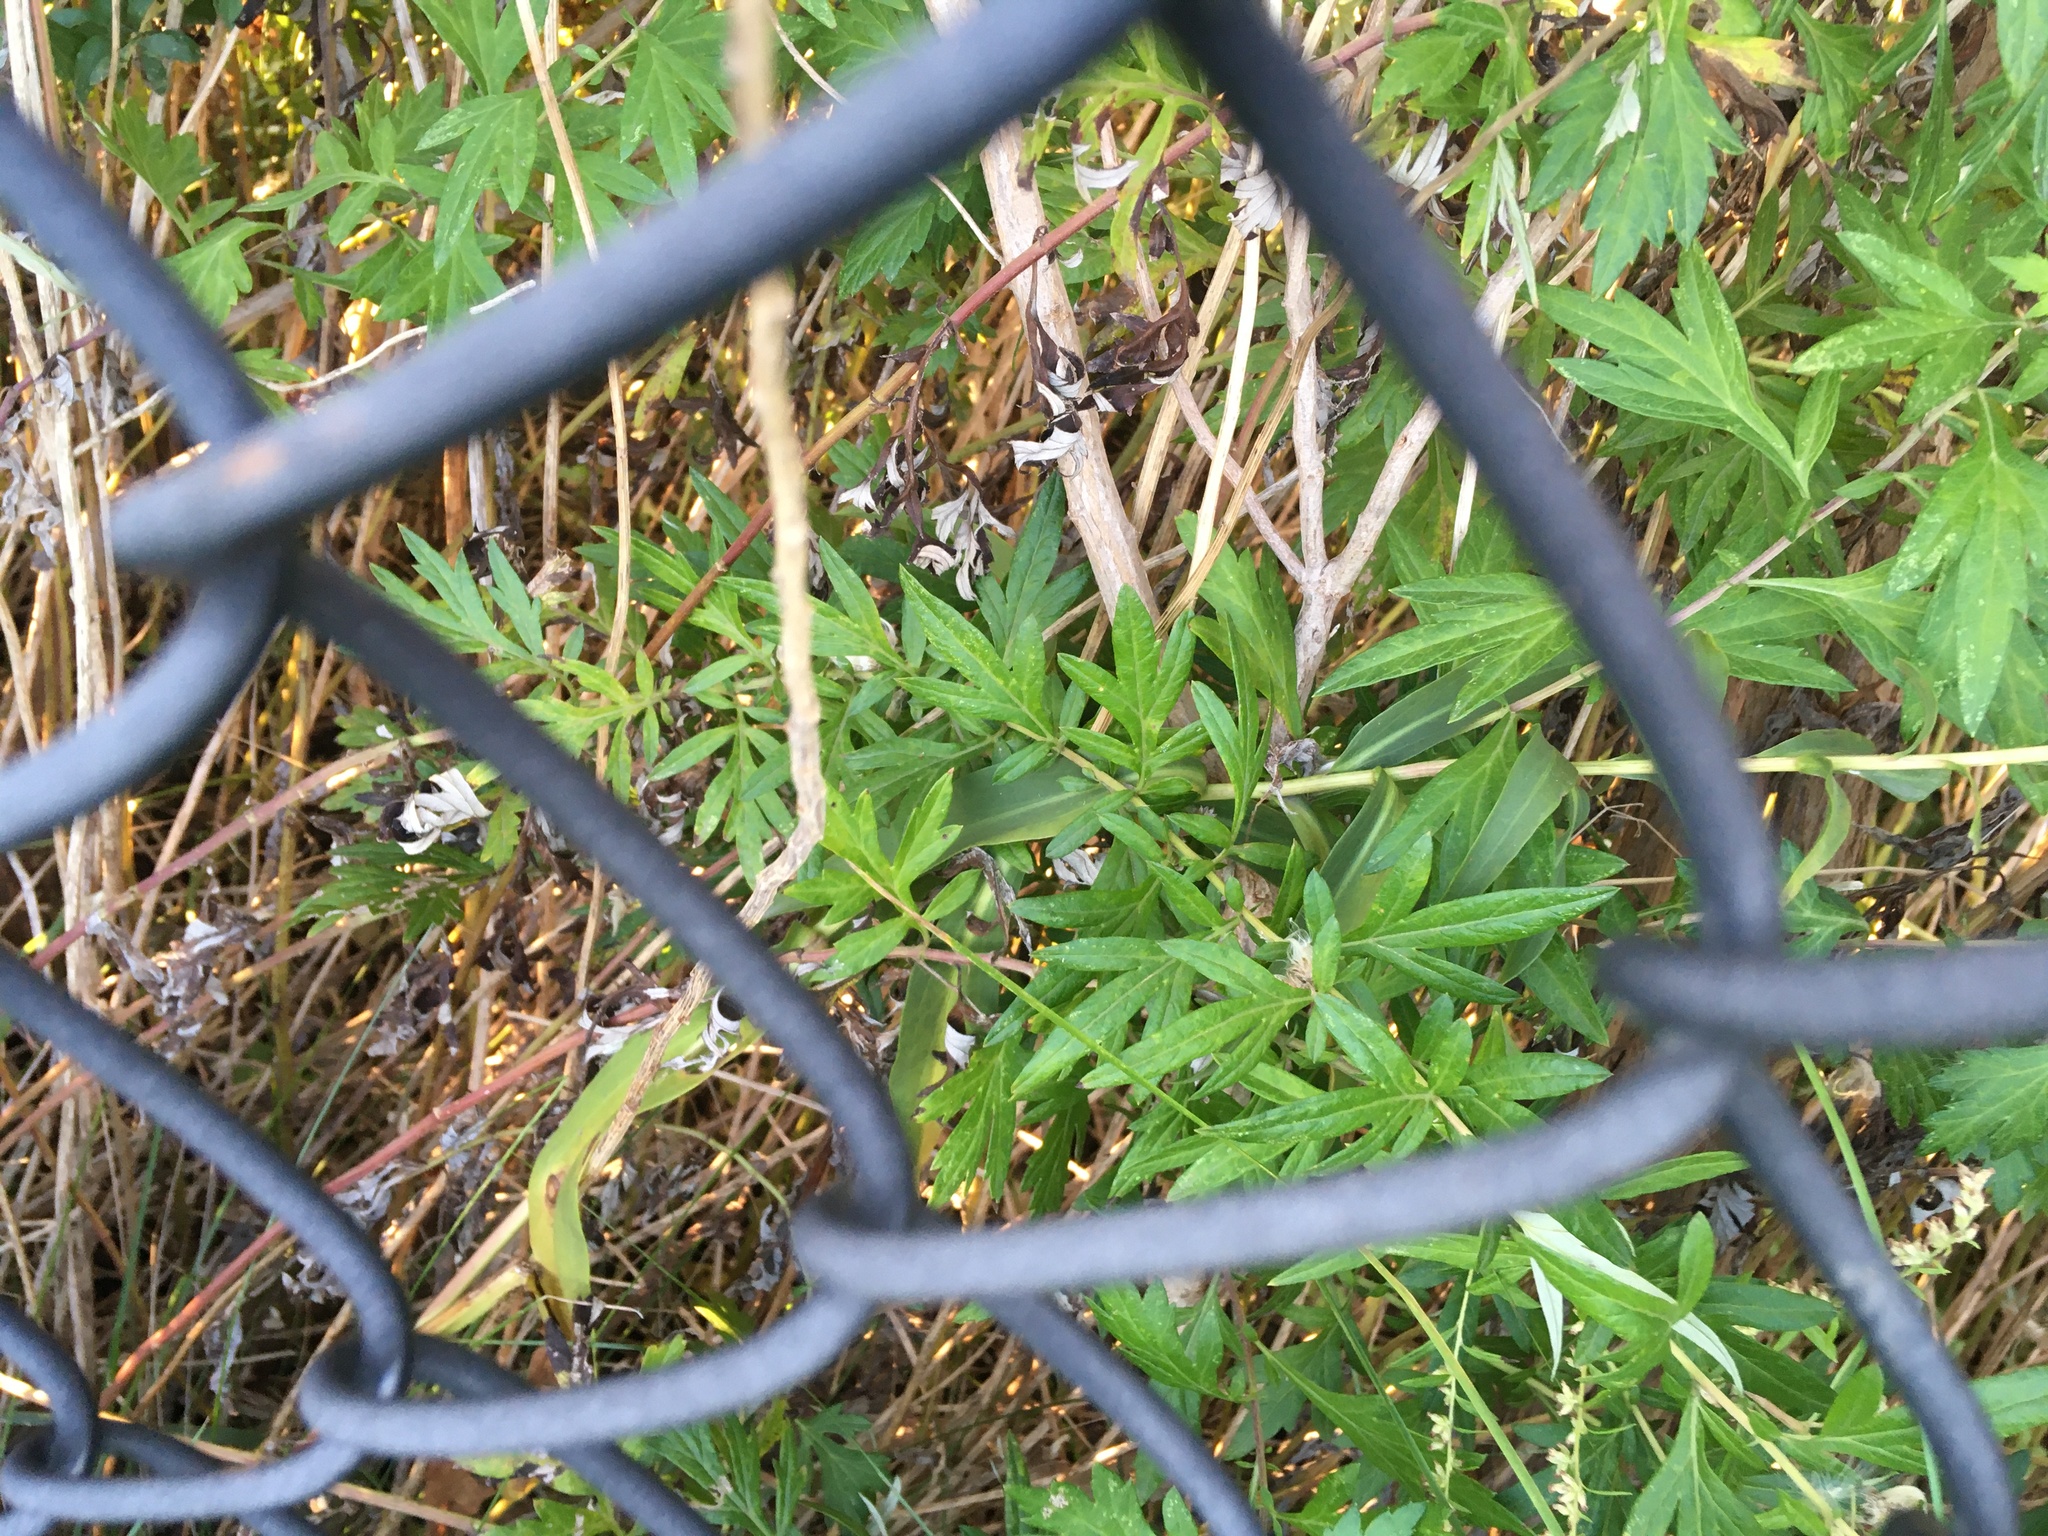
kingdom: Plantae
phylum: Tracheophyta
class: Magnoliopsida
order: Asterales
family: Asteraceae
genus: Artemisia
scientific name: Artemisia vulgaris
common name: Mugwort
